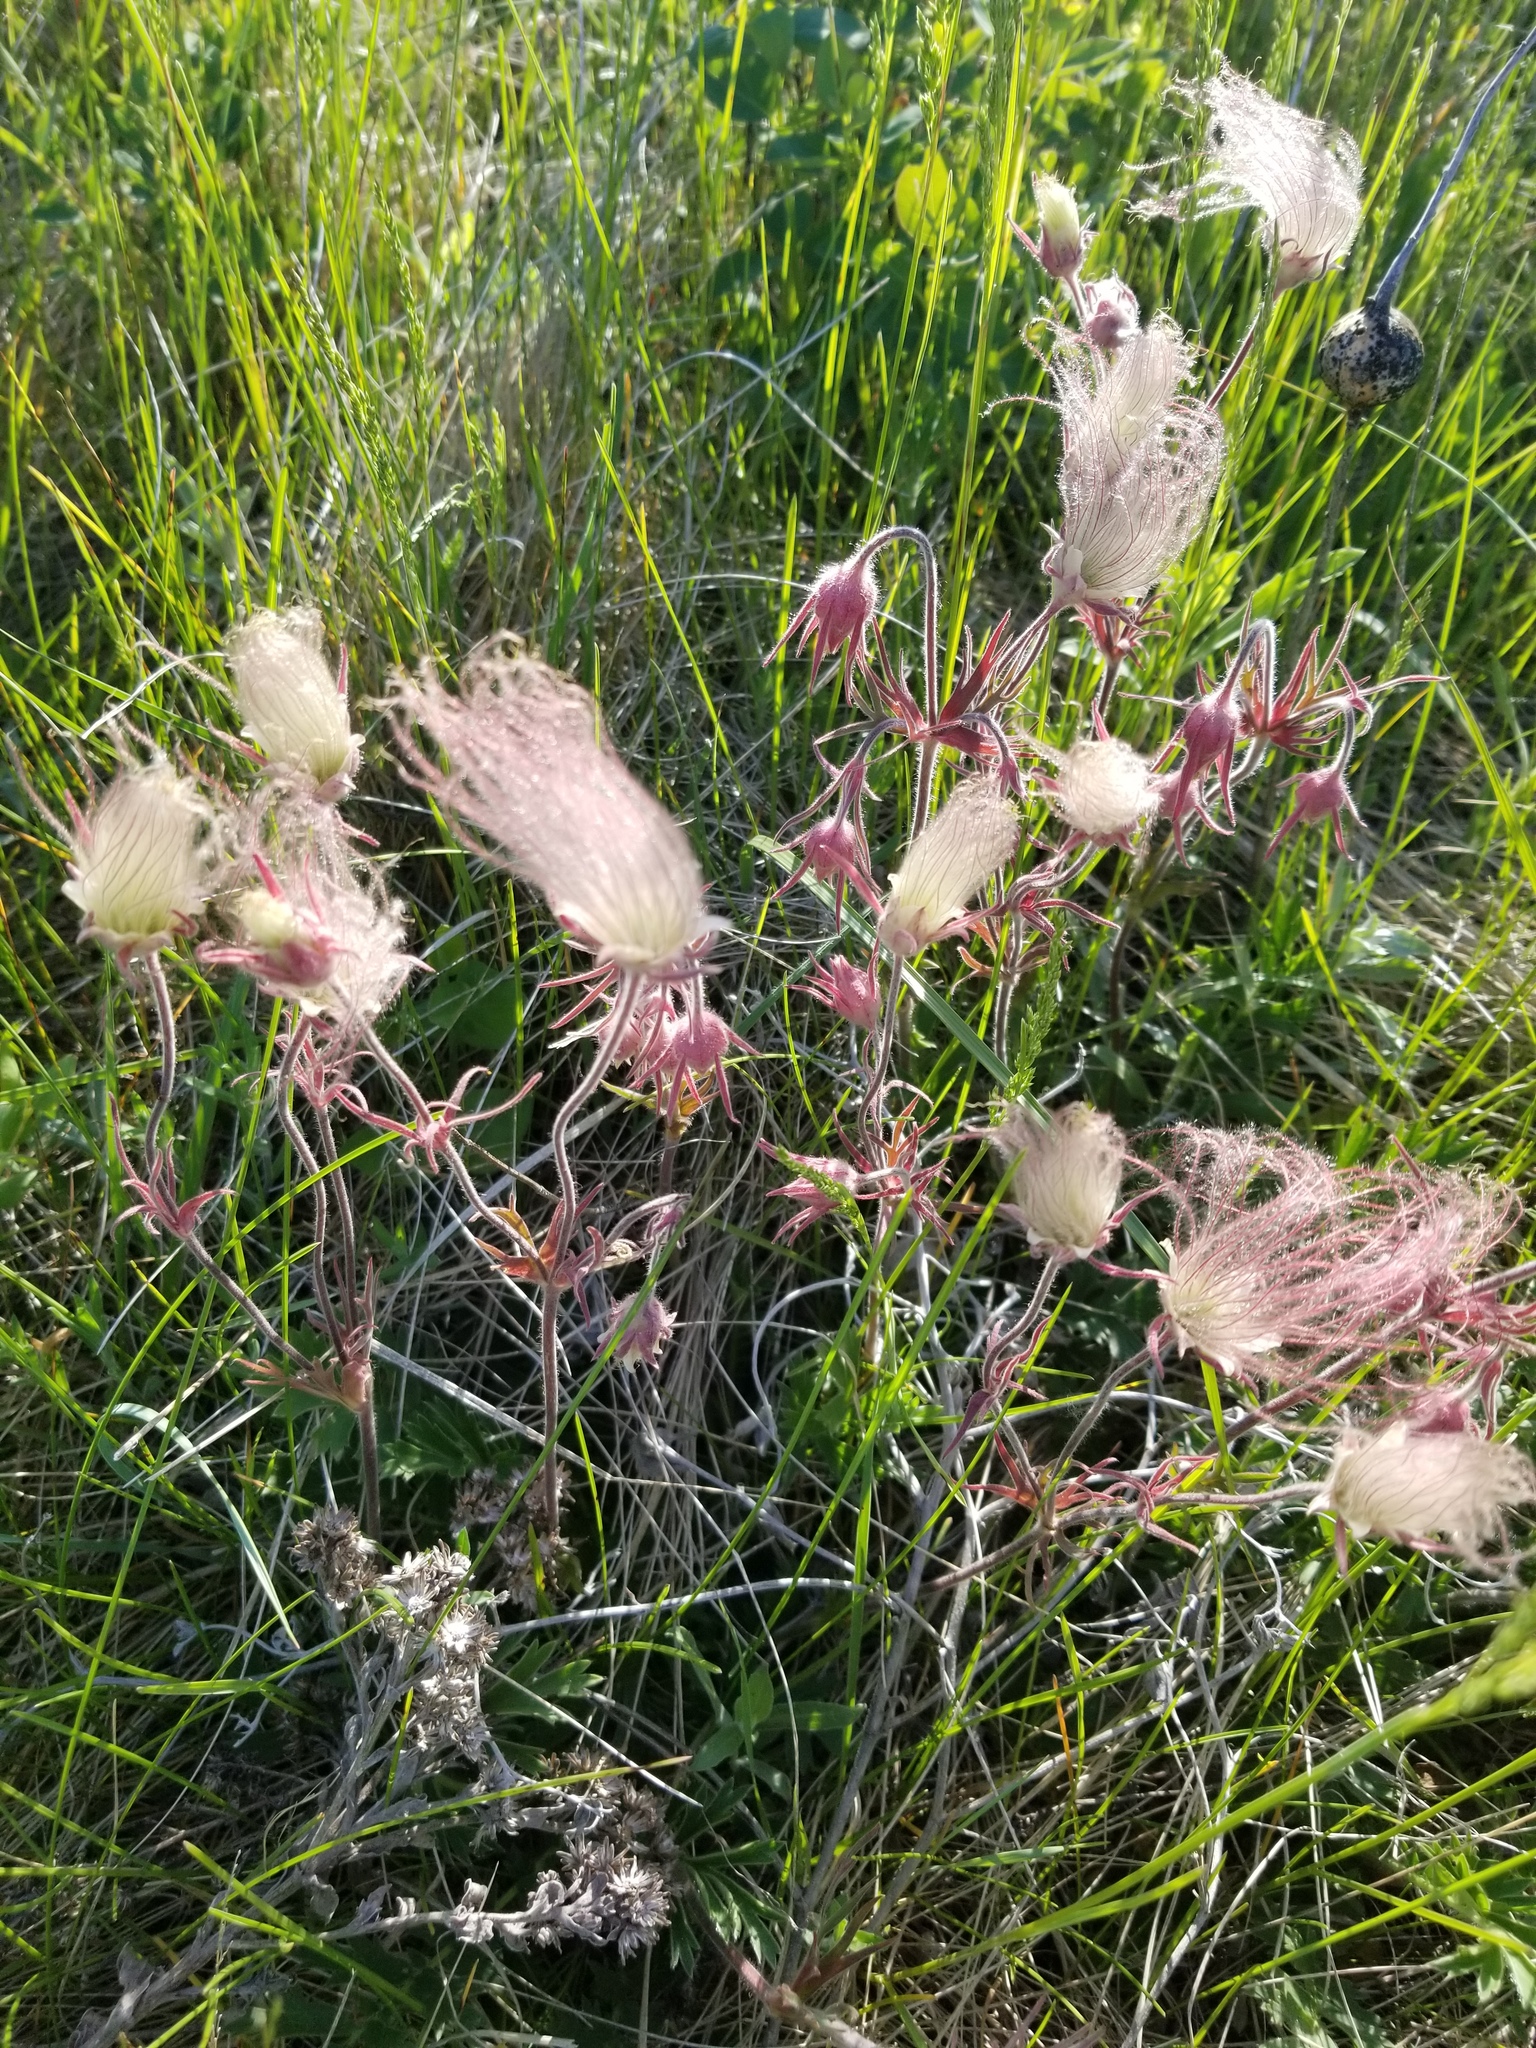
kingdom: Plantae
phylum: Tracheophyta
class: Magnoliopsida
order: Rosales
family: Rosaceae
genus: Geum
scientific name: Geum triflorum
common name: Old man's whiskers
